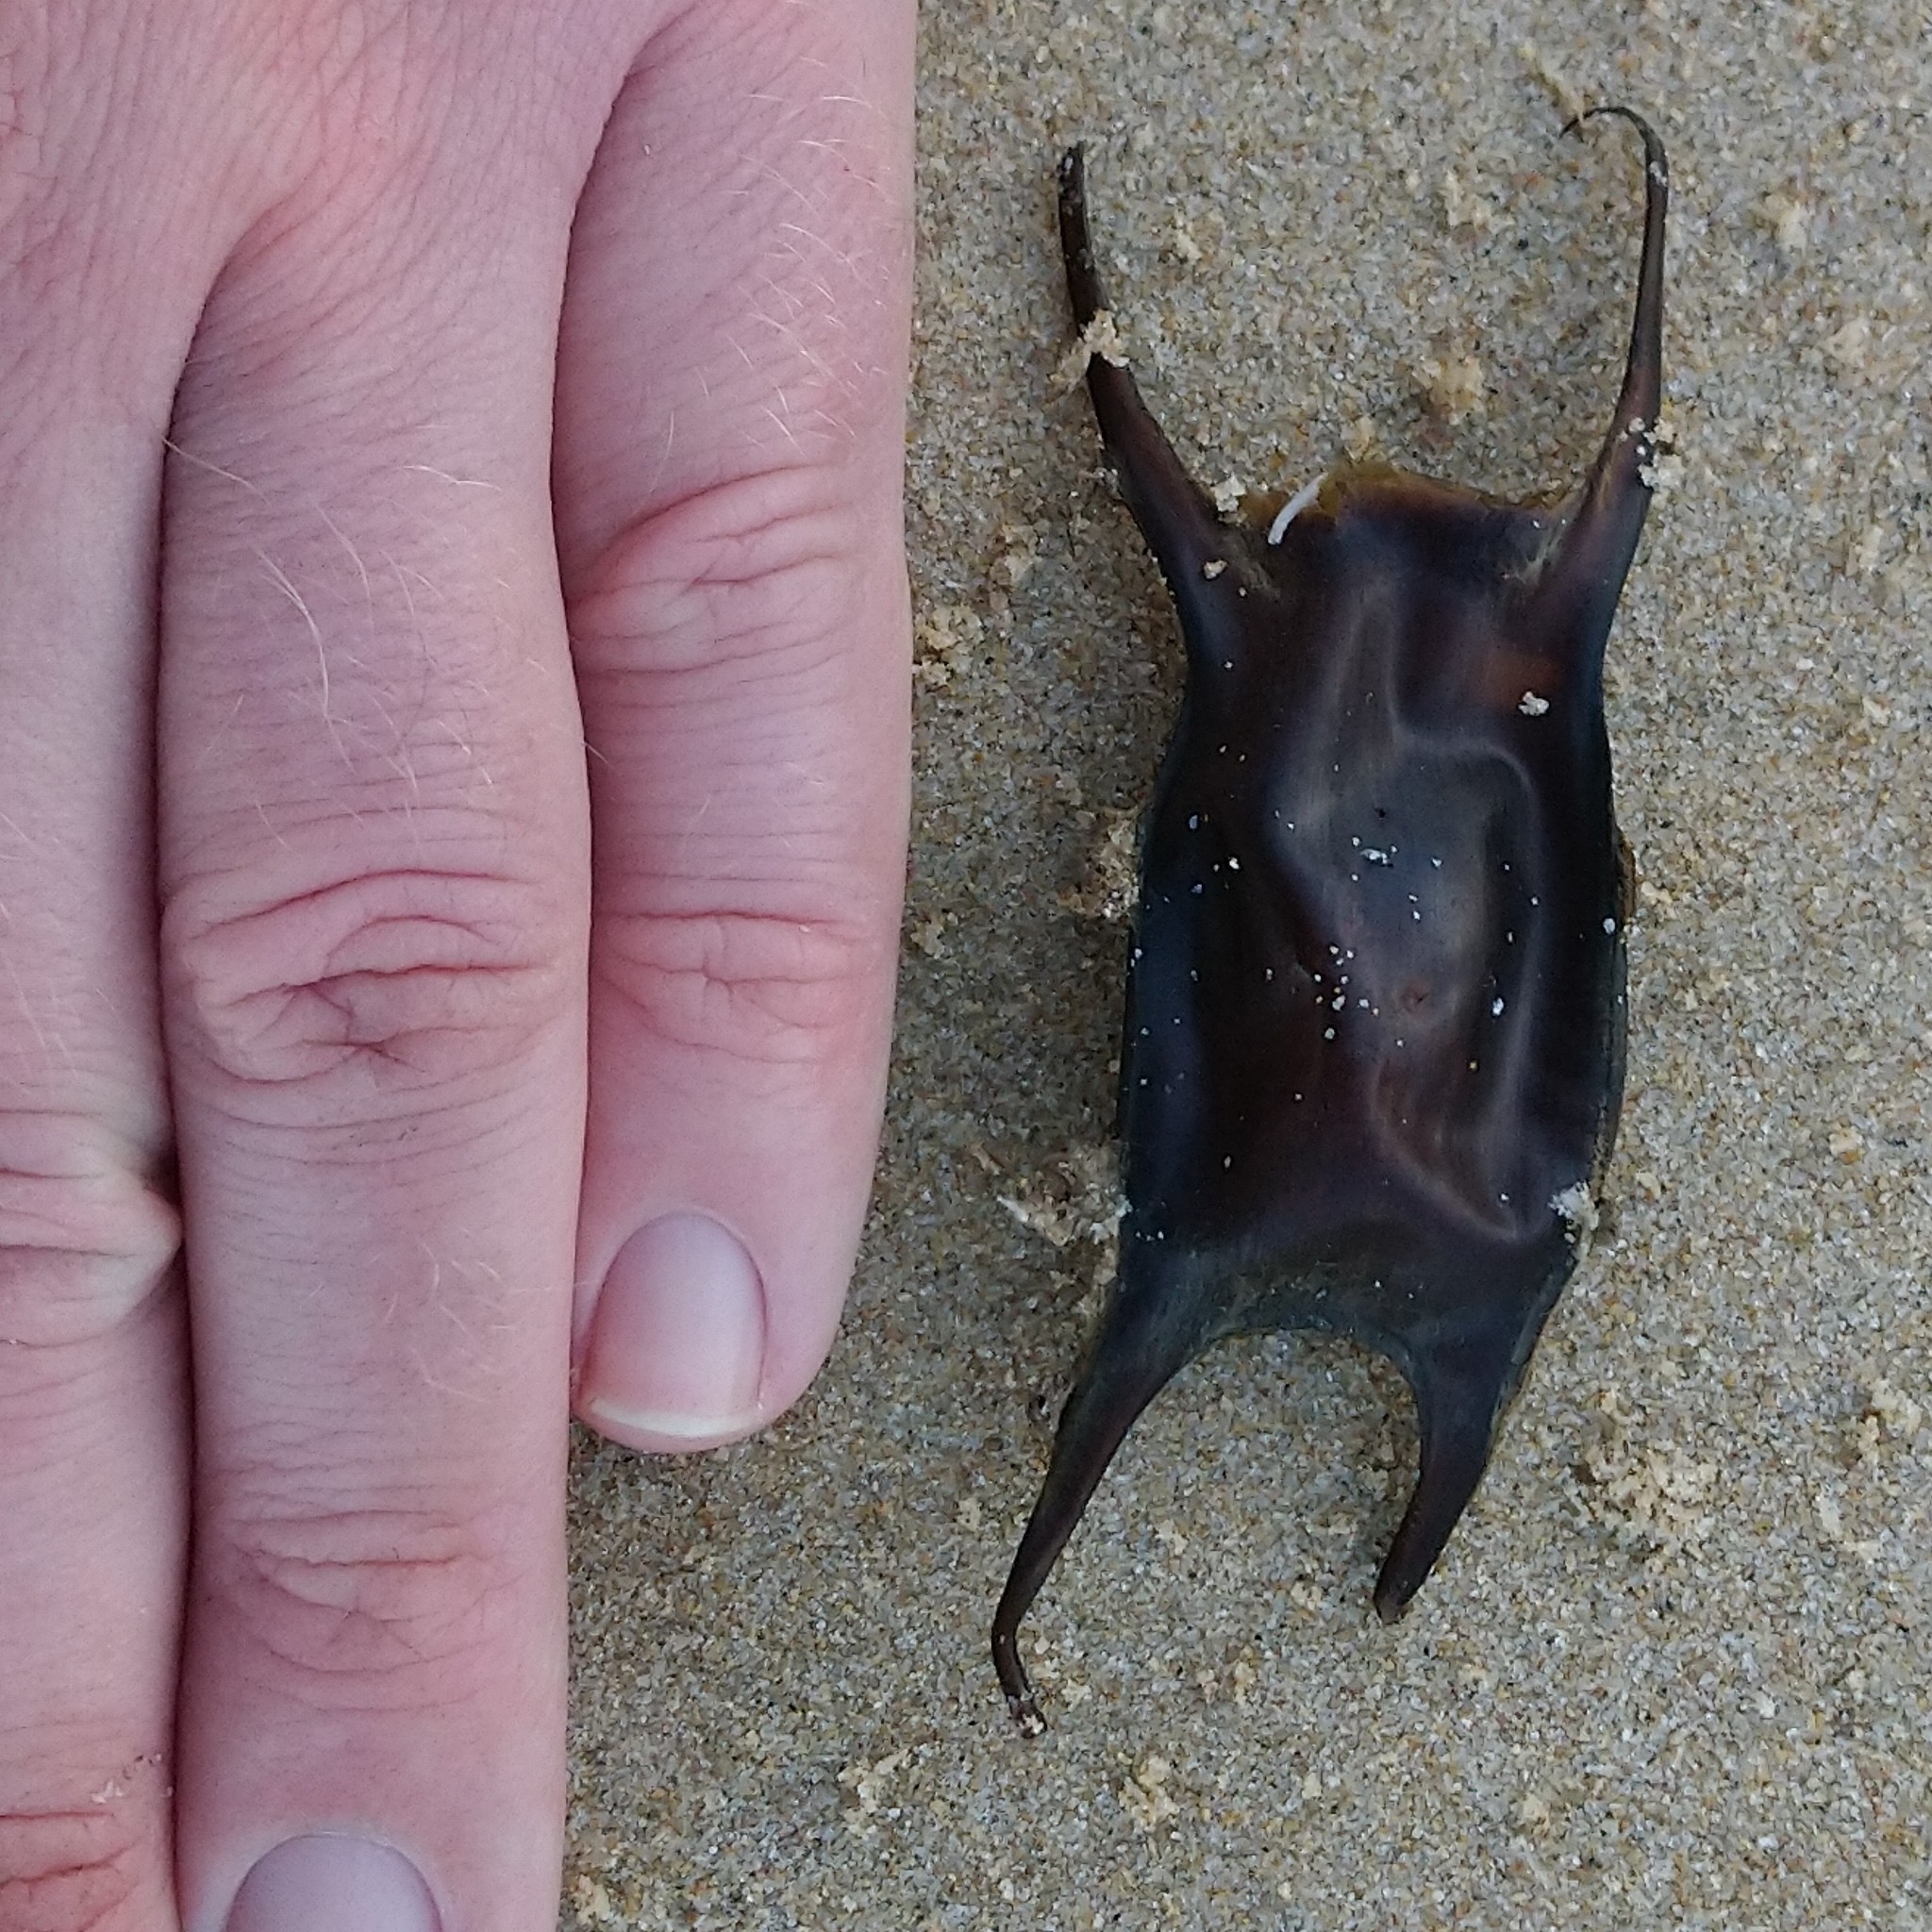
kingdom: Animalia
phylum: Chordata
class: Elasmobranchii
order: Rajiformes
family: Rajidae
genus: Raja
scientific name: Raja ocellifera
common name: Twineye skate
